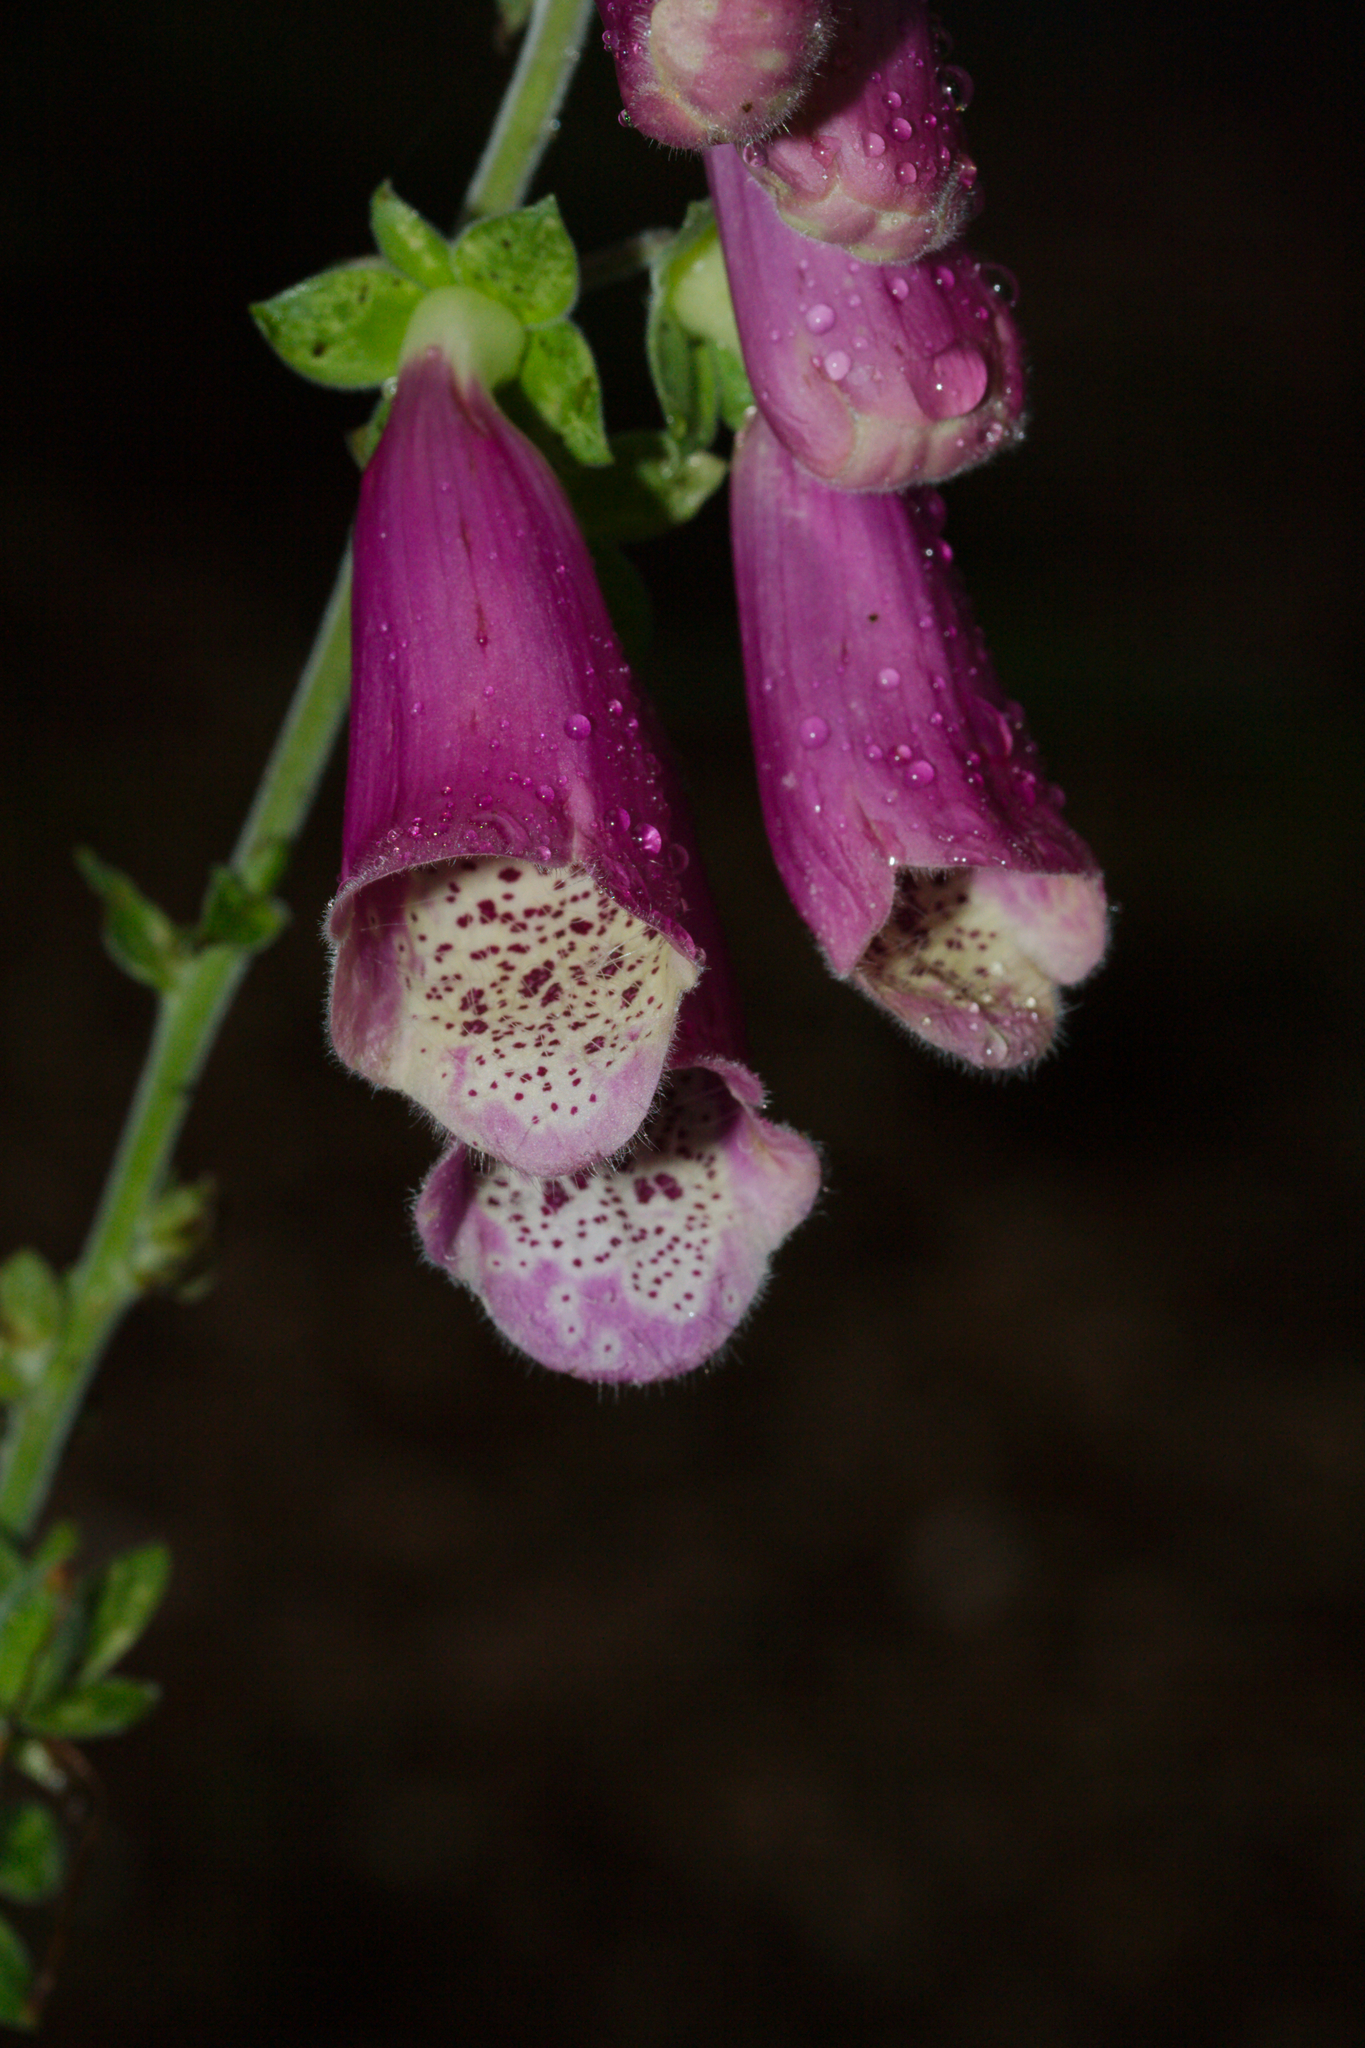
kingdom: Plantae
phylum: Tracheophyta
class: Magnoliopsida
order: Lamiales
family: Plantaginaceae
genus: Digitalis
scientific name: Digitalis purpurea
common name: Foxglove
